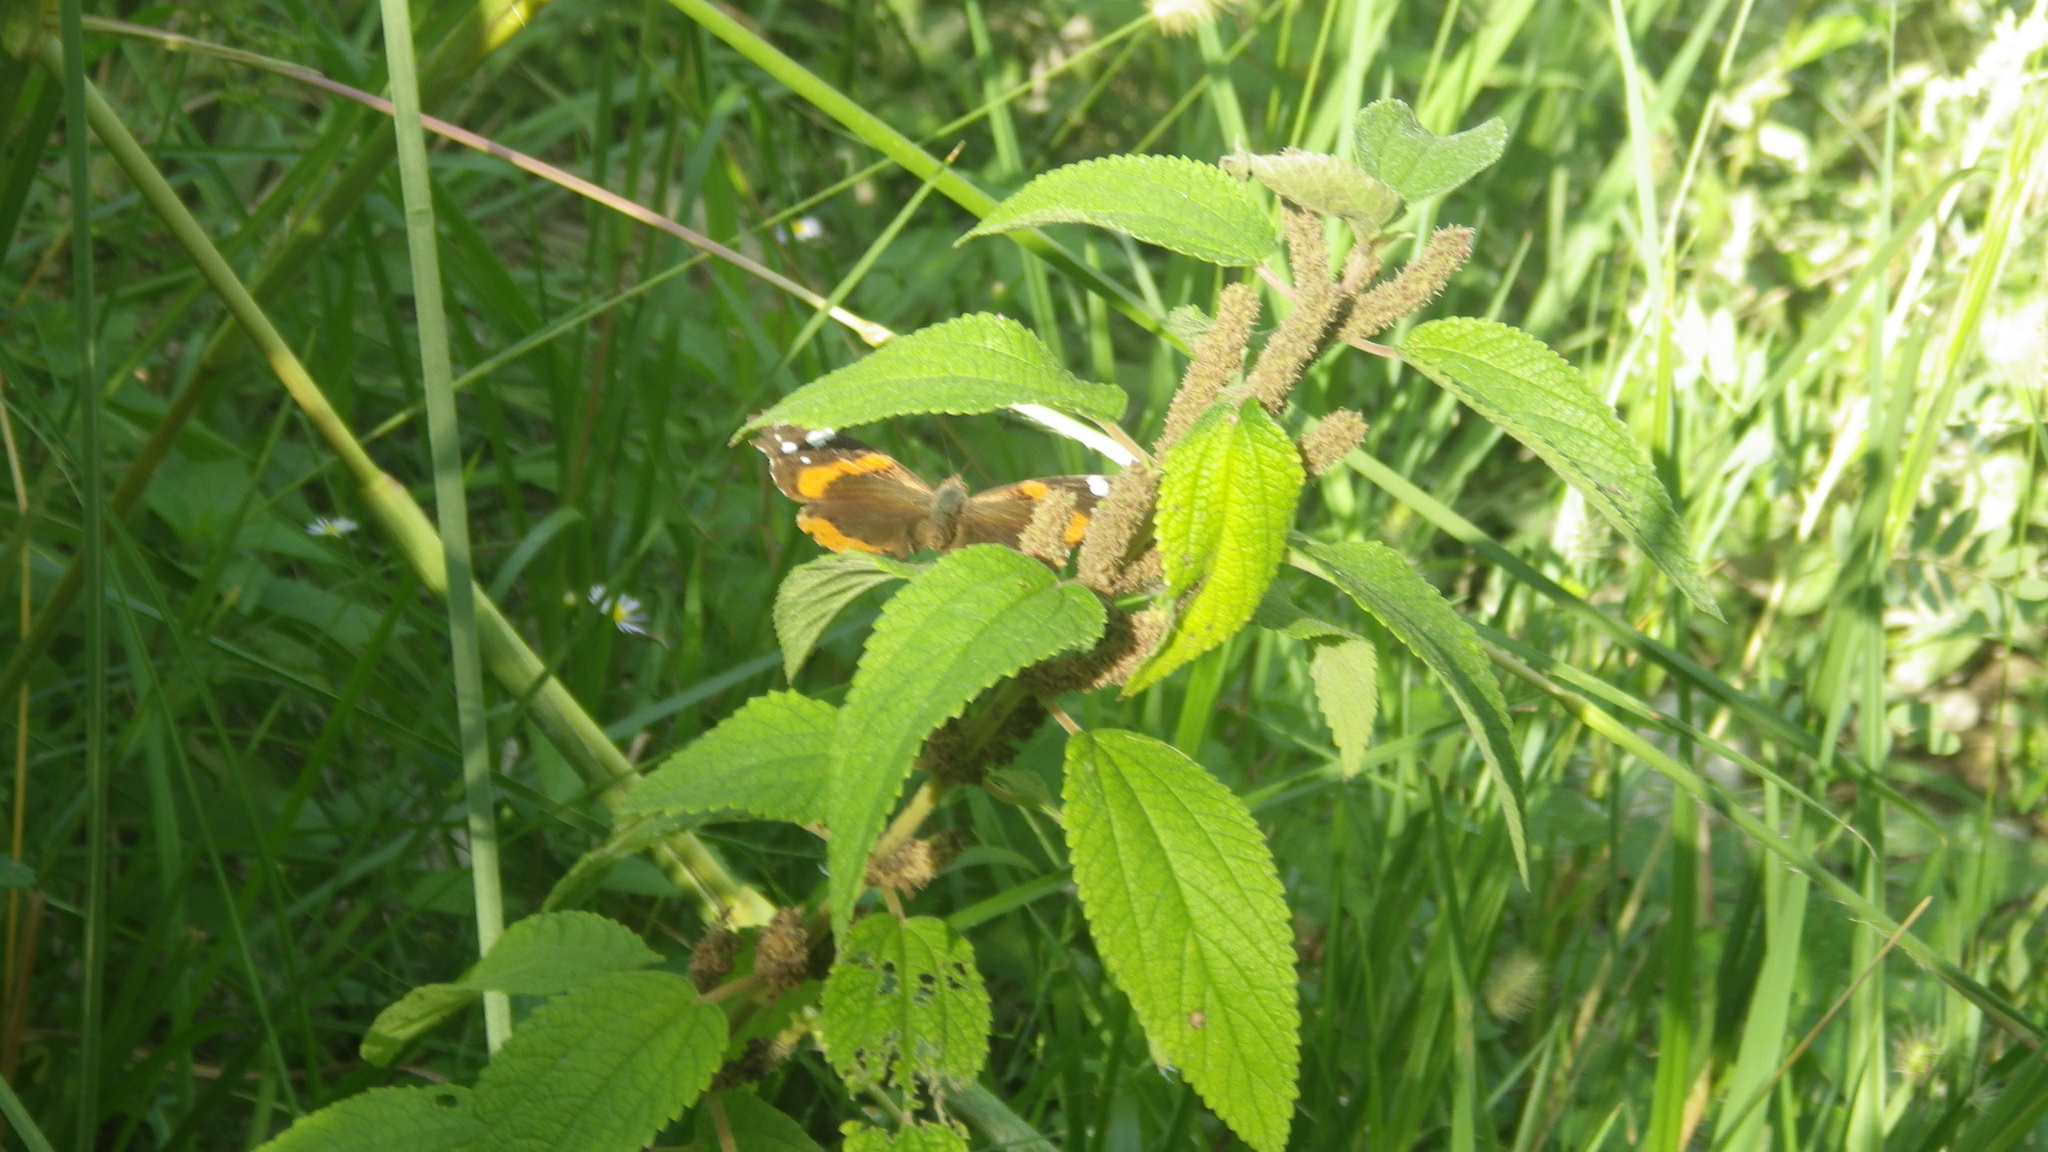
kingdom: Animalia
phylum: Arthropoda
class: Insecta
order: Lepidoptera
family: Nymphalidae
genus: Vanessa
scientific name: Vanessa atalanta
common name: Red admiral
